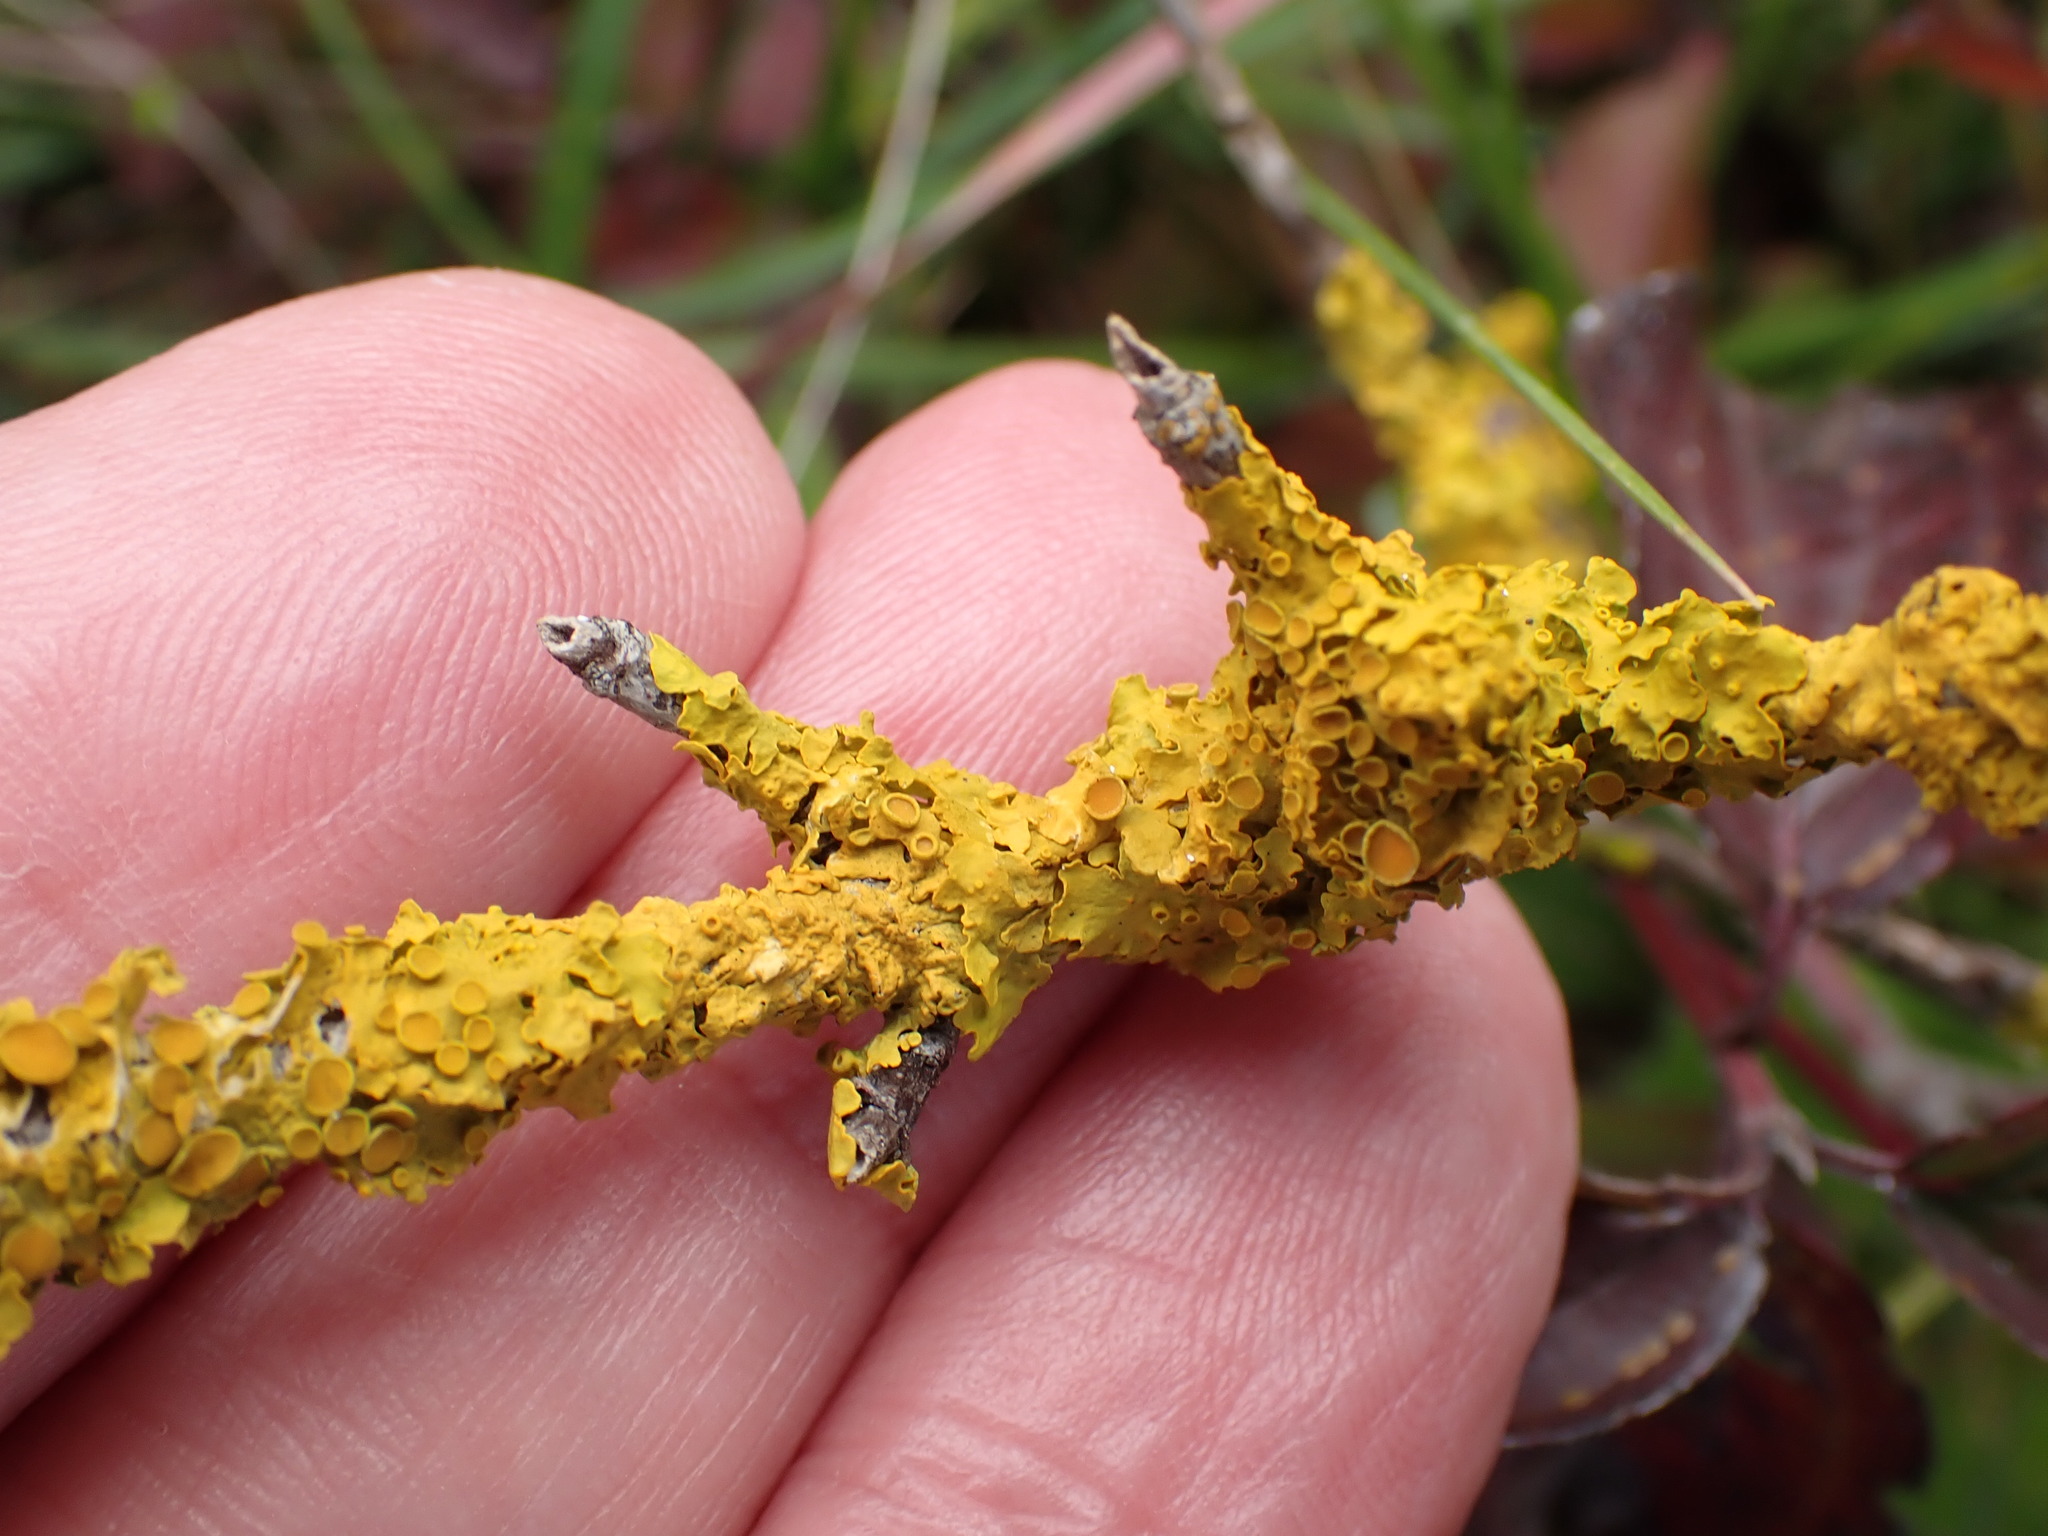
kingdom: Fungi
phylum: Ascomycota
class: Lecanoromycetes
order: Teloschistales
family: Teloschistaceae
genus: Xanthoria
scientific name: Xanthoria parietina
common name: Common orange lichen
